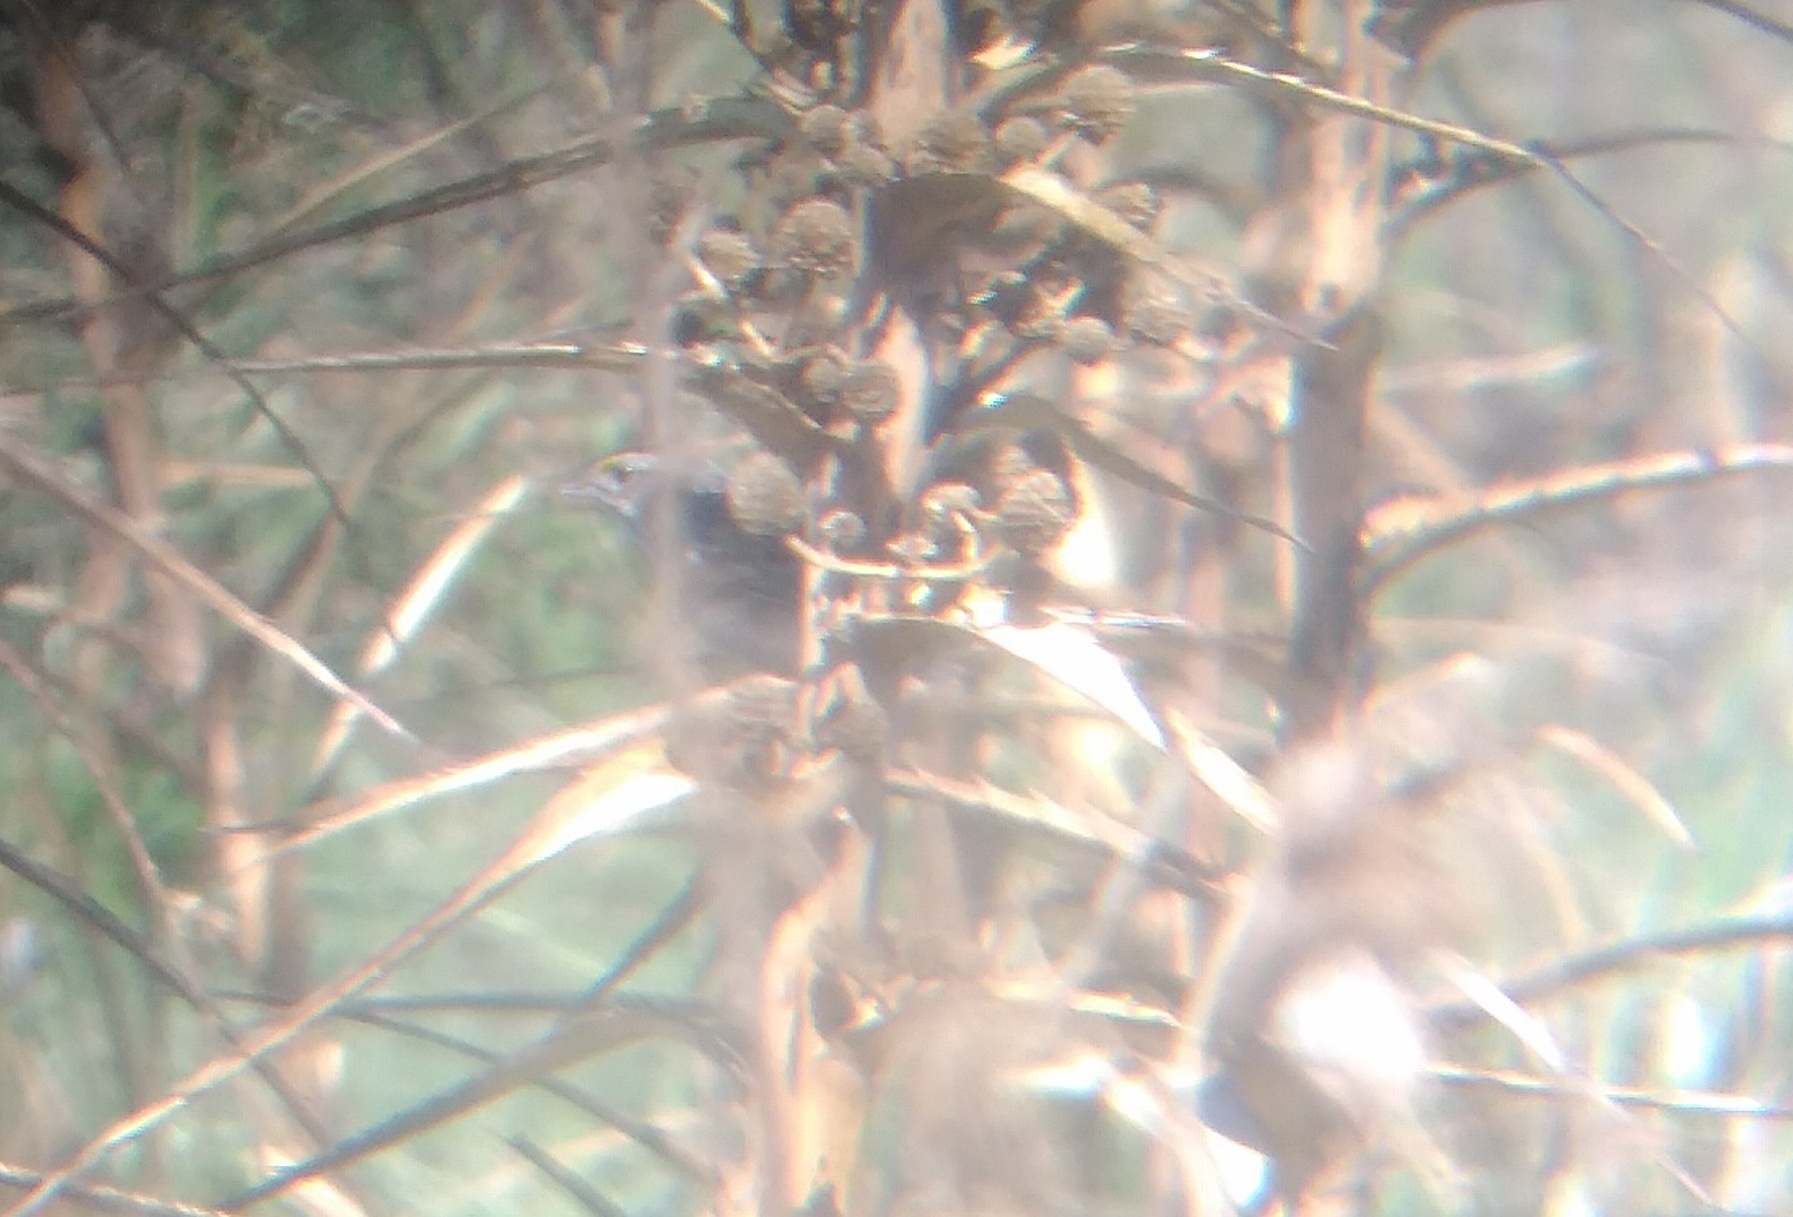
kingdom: Animalia
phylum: Chordata
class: Aves
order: Passeriformes
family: Passerellidae
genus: Ammodramus
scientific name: Ammodramus humeralis
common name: Grassland sparrow
